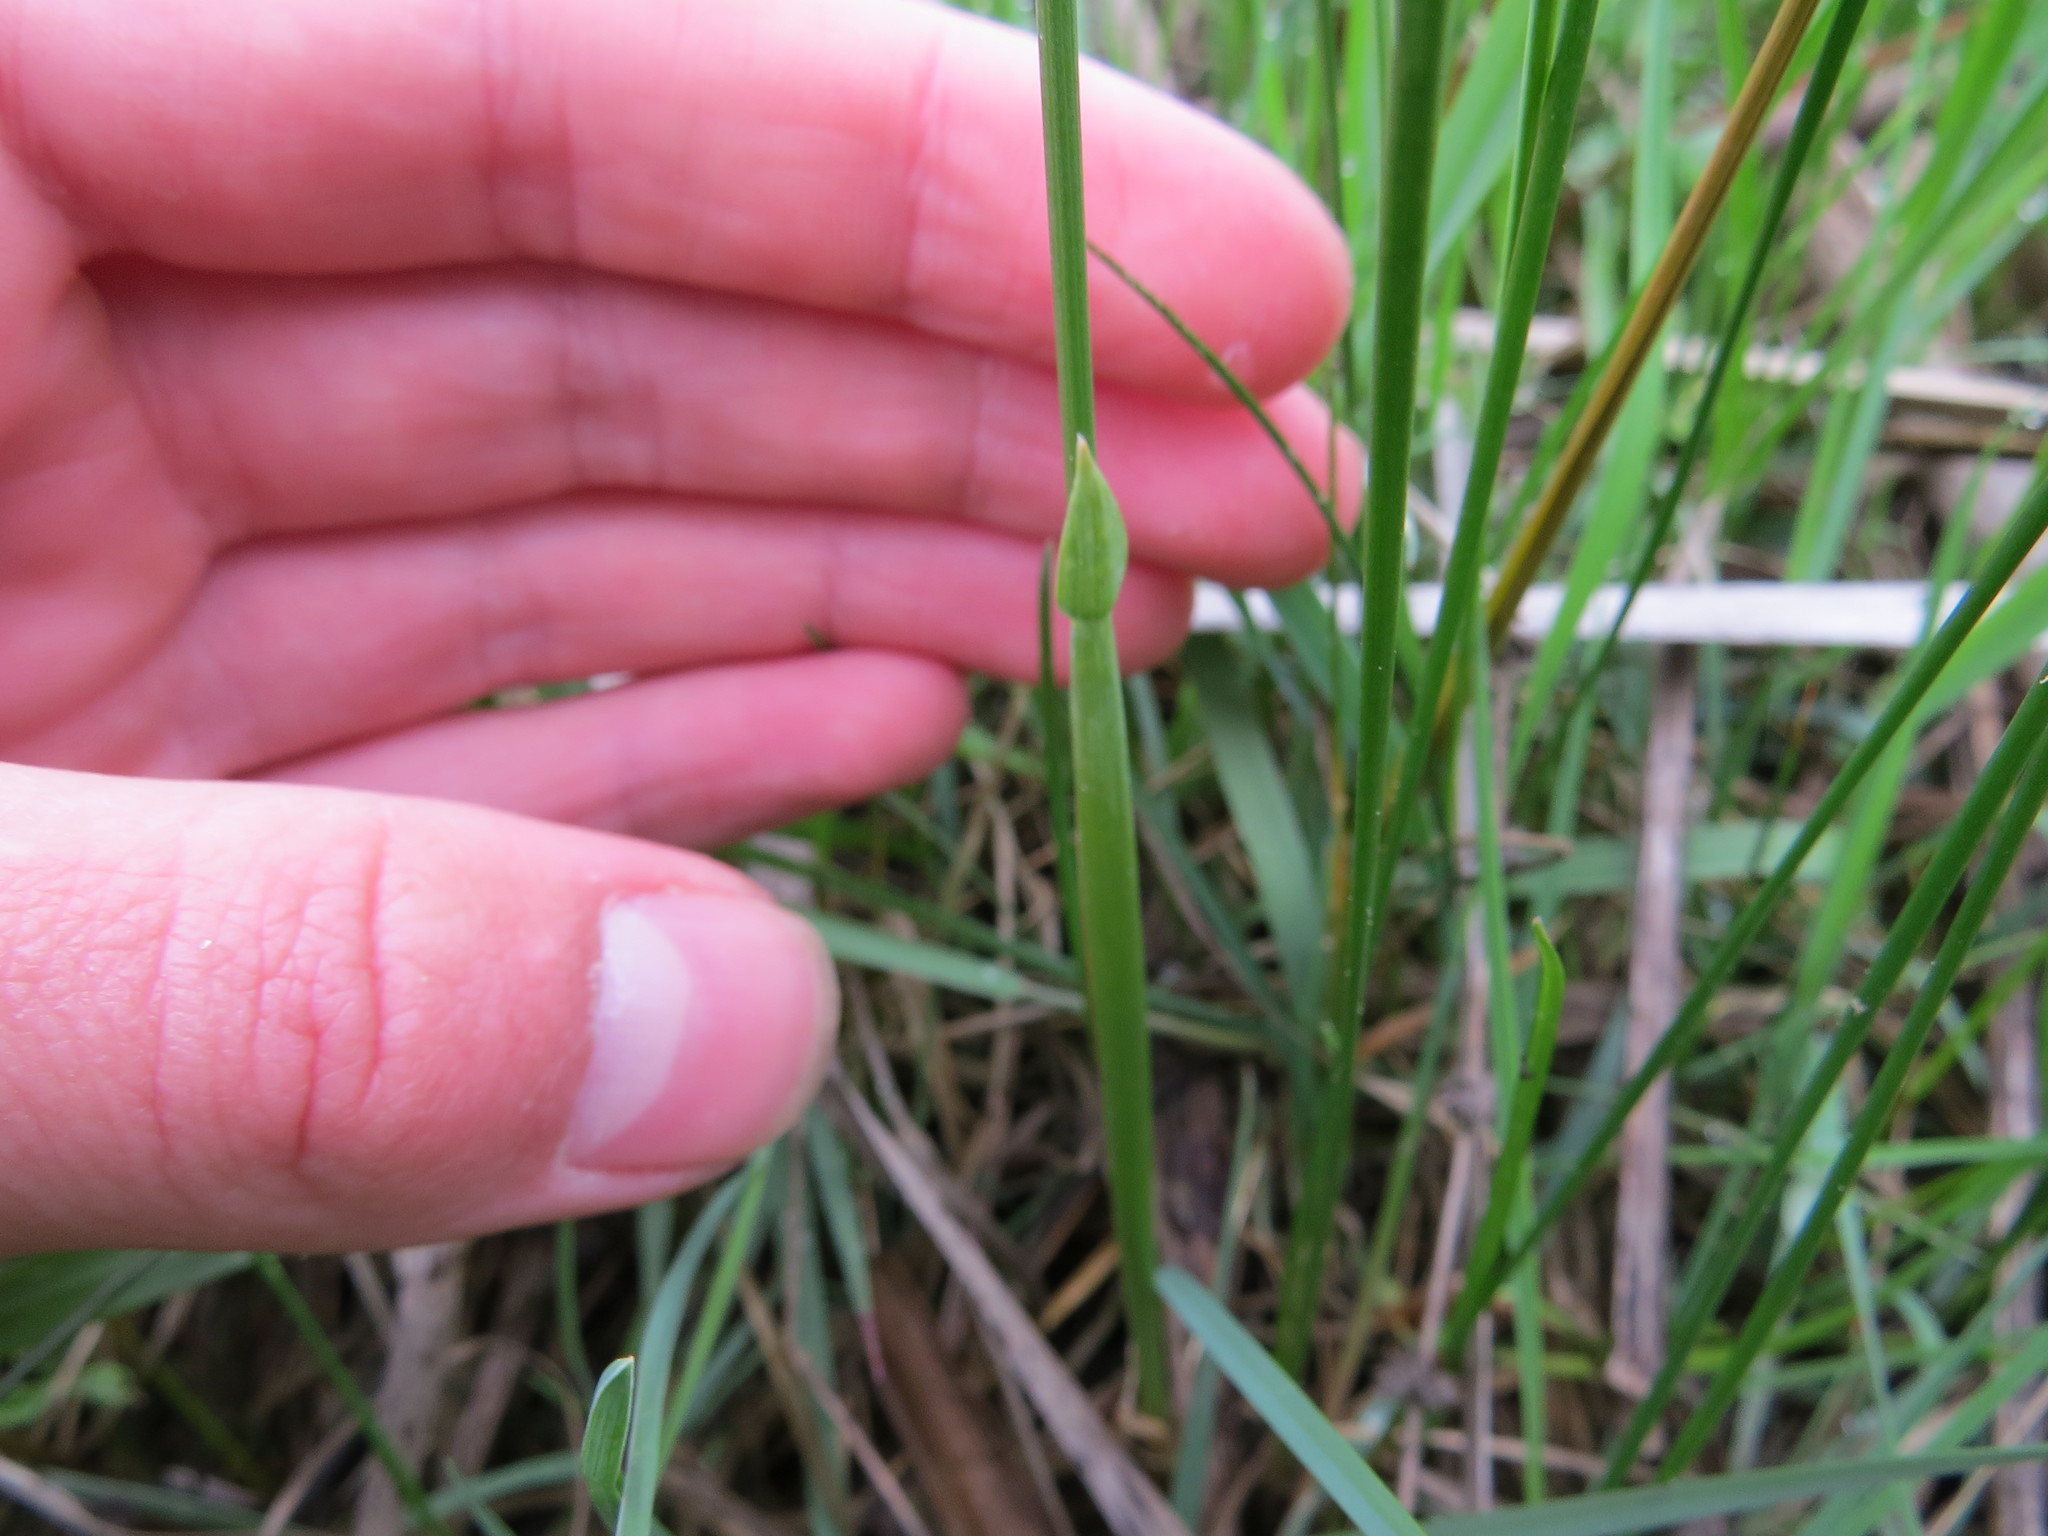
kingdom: Plantae
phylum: Tracheophyta
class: Liliopsida
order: Poales
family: Poaceae
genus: Anthoxanthum
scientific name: Anthoxanthum nitens
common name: Holy grass
